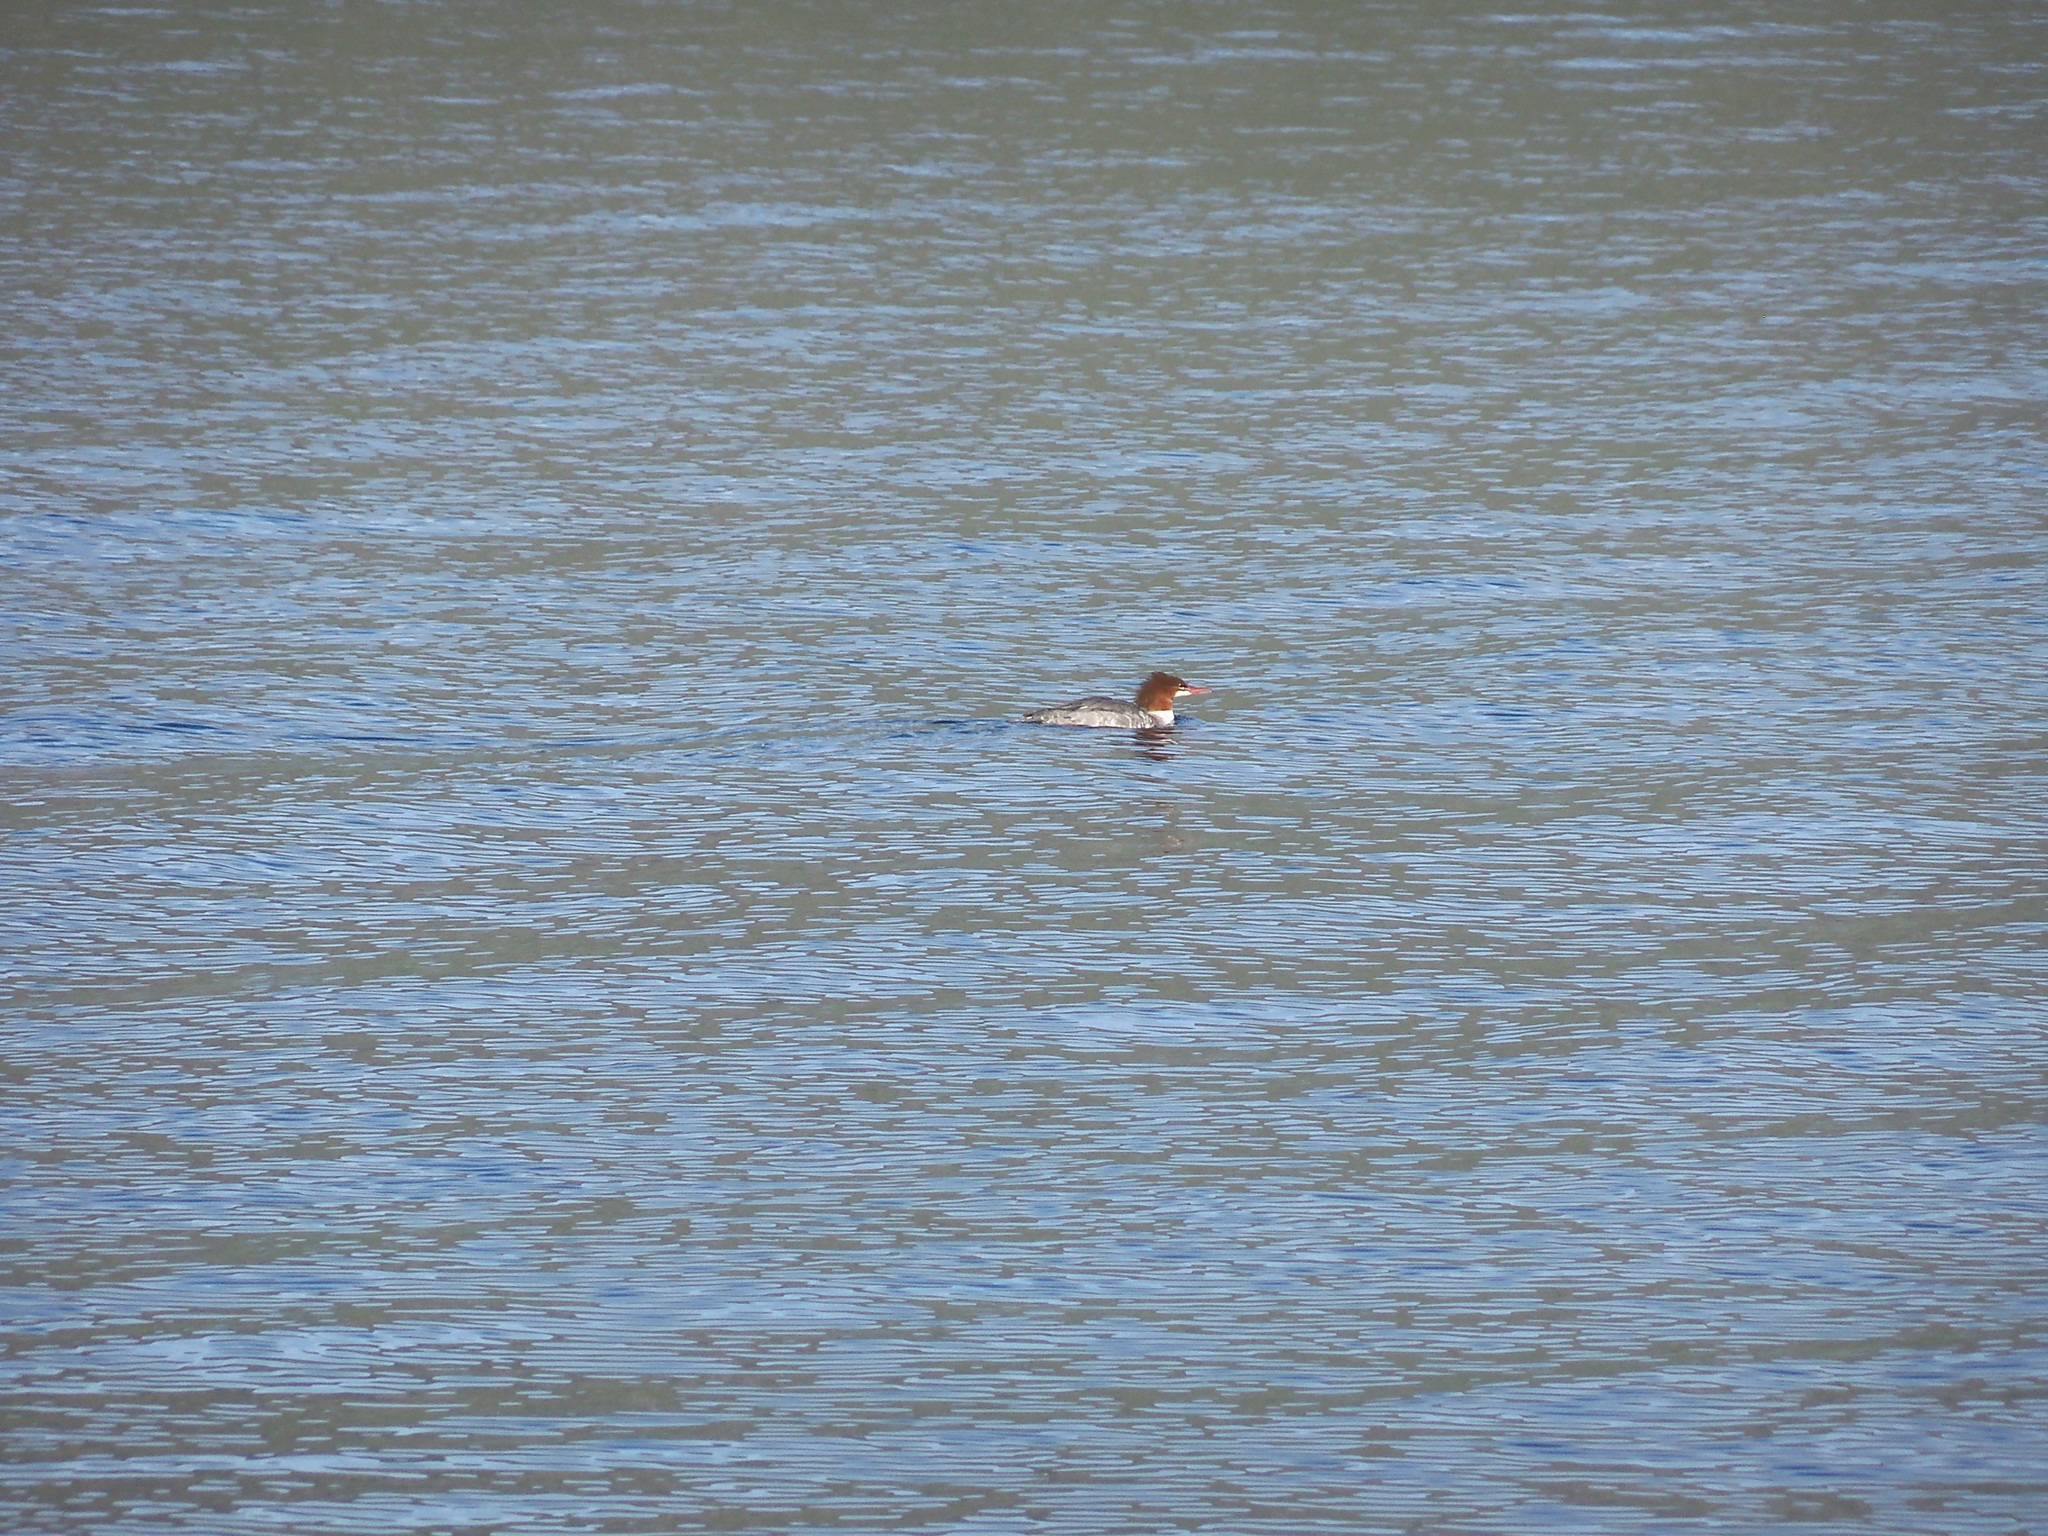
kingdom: Animalia
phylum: Chordata
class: Aves
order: Anseriformes
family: Anatidae
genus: Mergus
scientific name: Mergus merganser
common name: Common merganser
